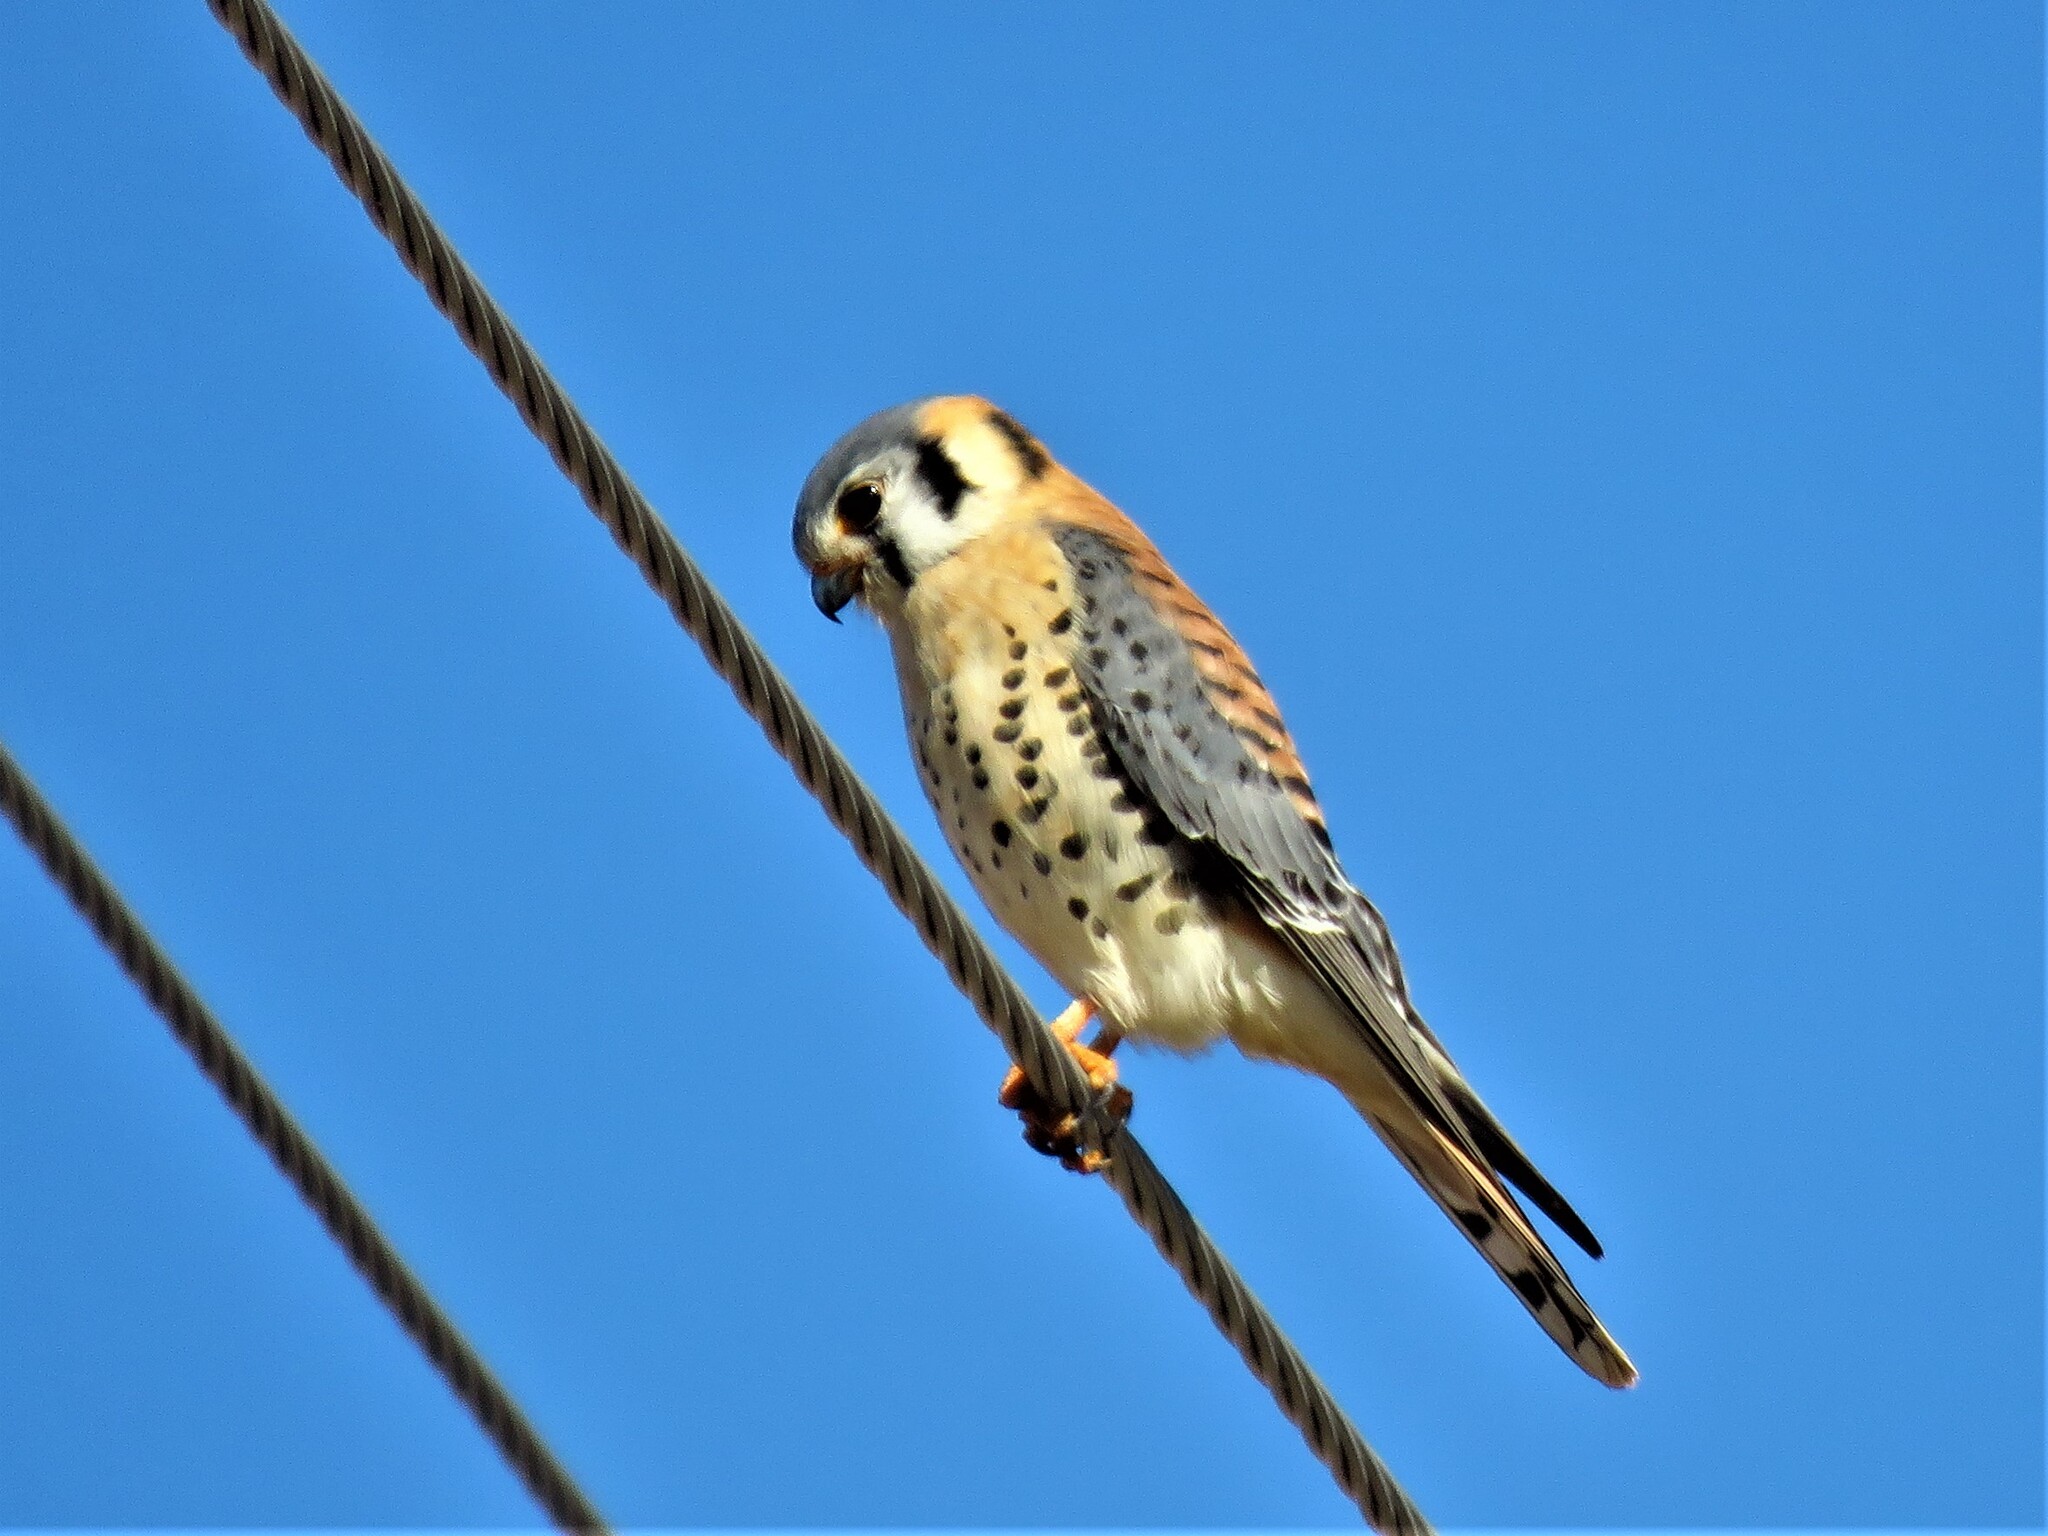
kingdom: Animalia
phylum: Chordata
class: Aves
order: Falconiformes
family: Falconidae
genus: Falco
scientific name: Falco sparverius
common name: American kestrel
